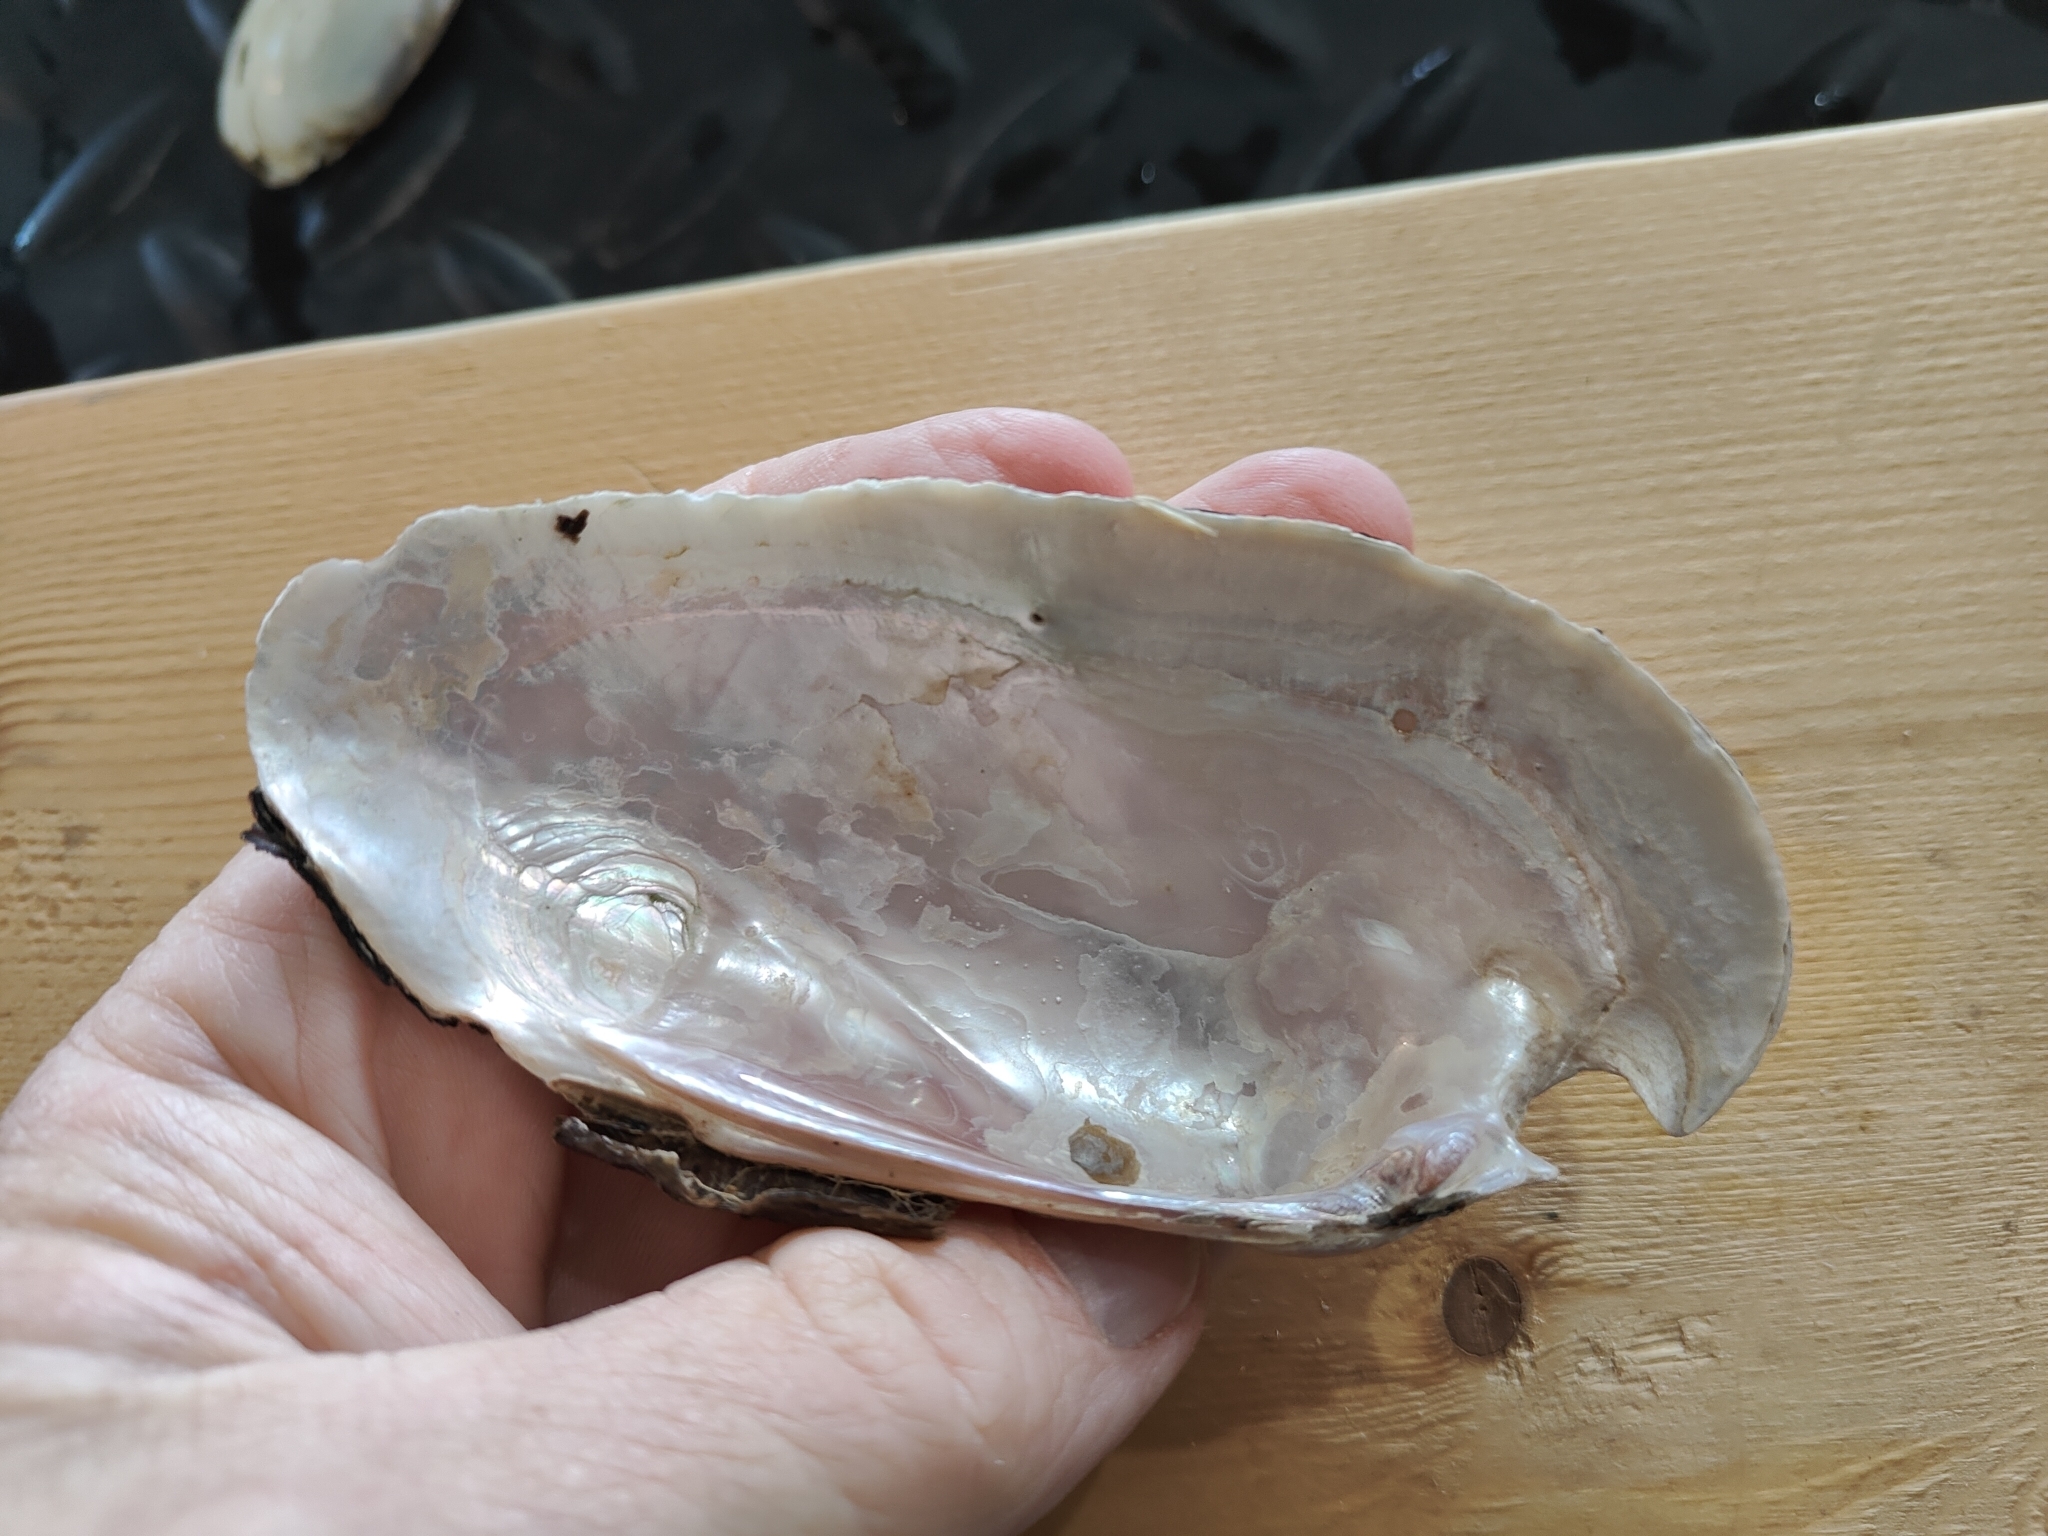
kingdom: Animalia
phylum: Mollusca
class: Bivalvia
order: Unionida
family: Unionidae
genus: Ligumia
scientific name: Ligumia recta
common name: Black sandshell
